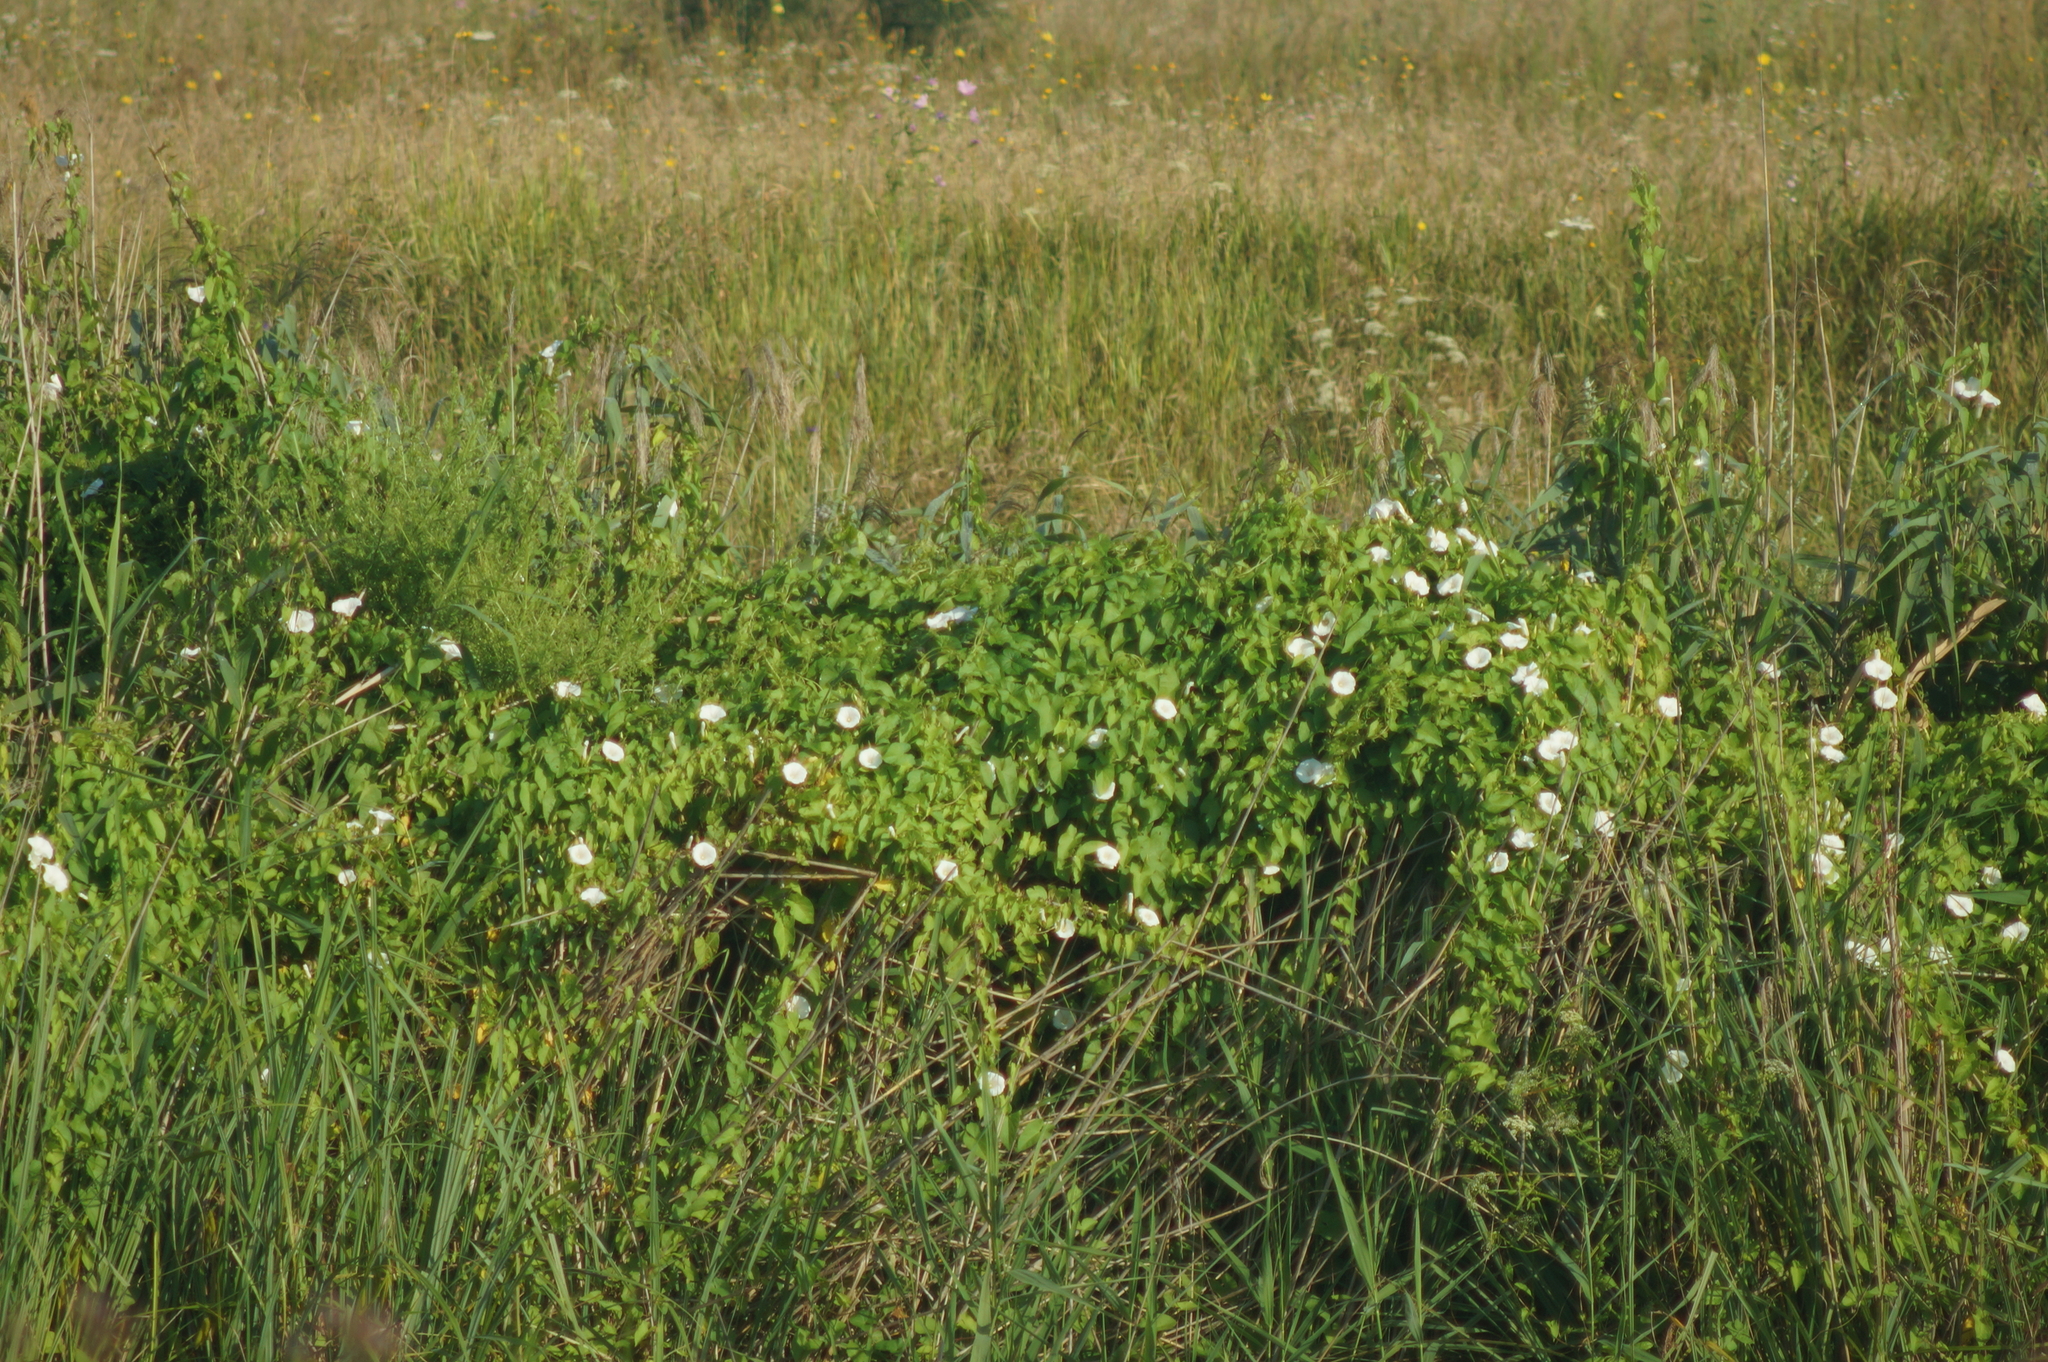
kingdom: Plantae
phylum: Tracheophyta
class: Magnoliopsida
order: Solanales
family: Convolvulaceae
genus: Calystegia
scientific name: Calystegia sepium
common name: Hedge bindweed
